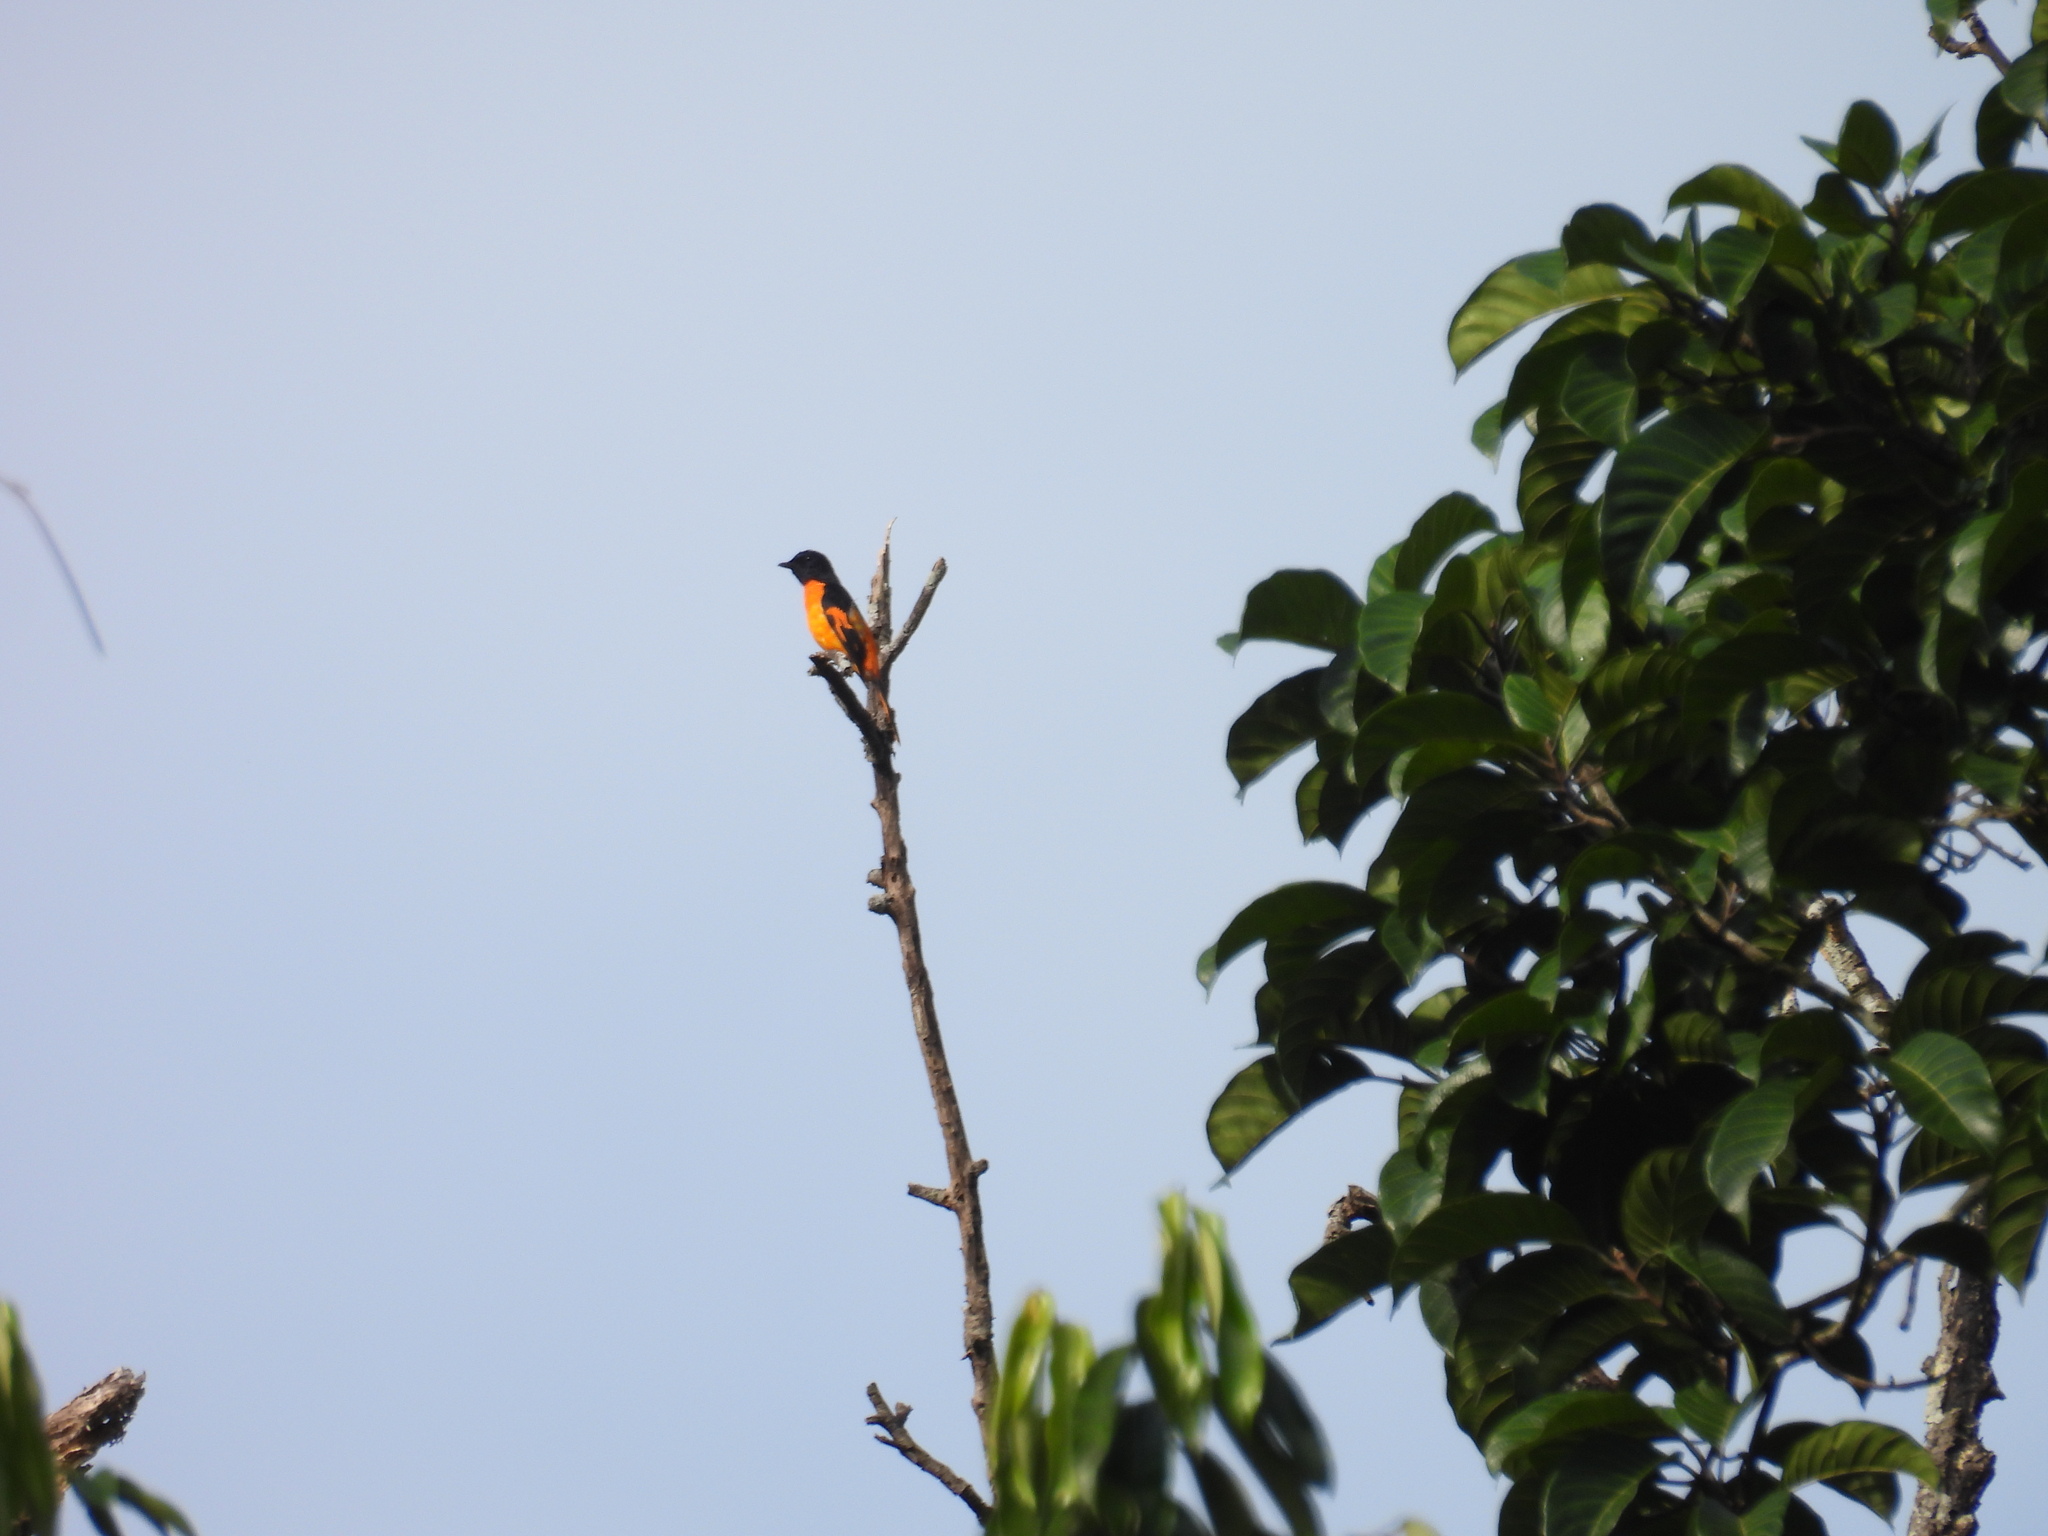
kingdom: Animalia
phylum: Chordata
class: Aves
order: Passeriformes
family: Campephagidae
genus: Pericrocotus
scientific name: Pericrocotus flammeus
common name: Orange minivet
